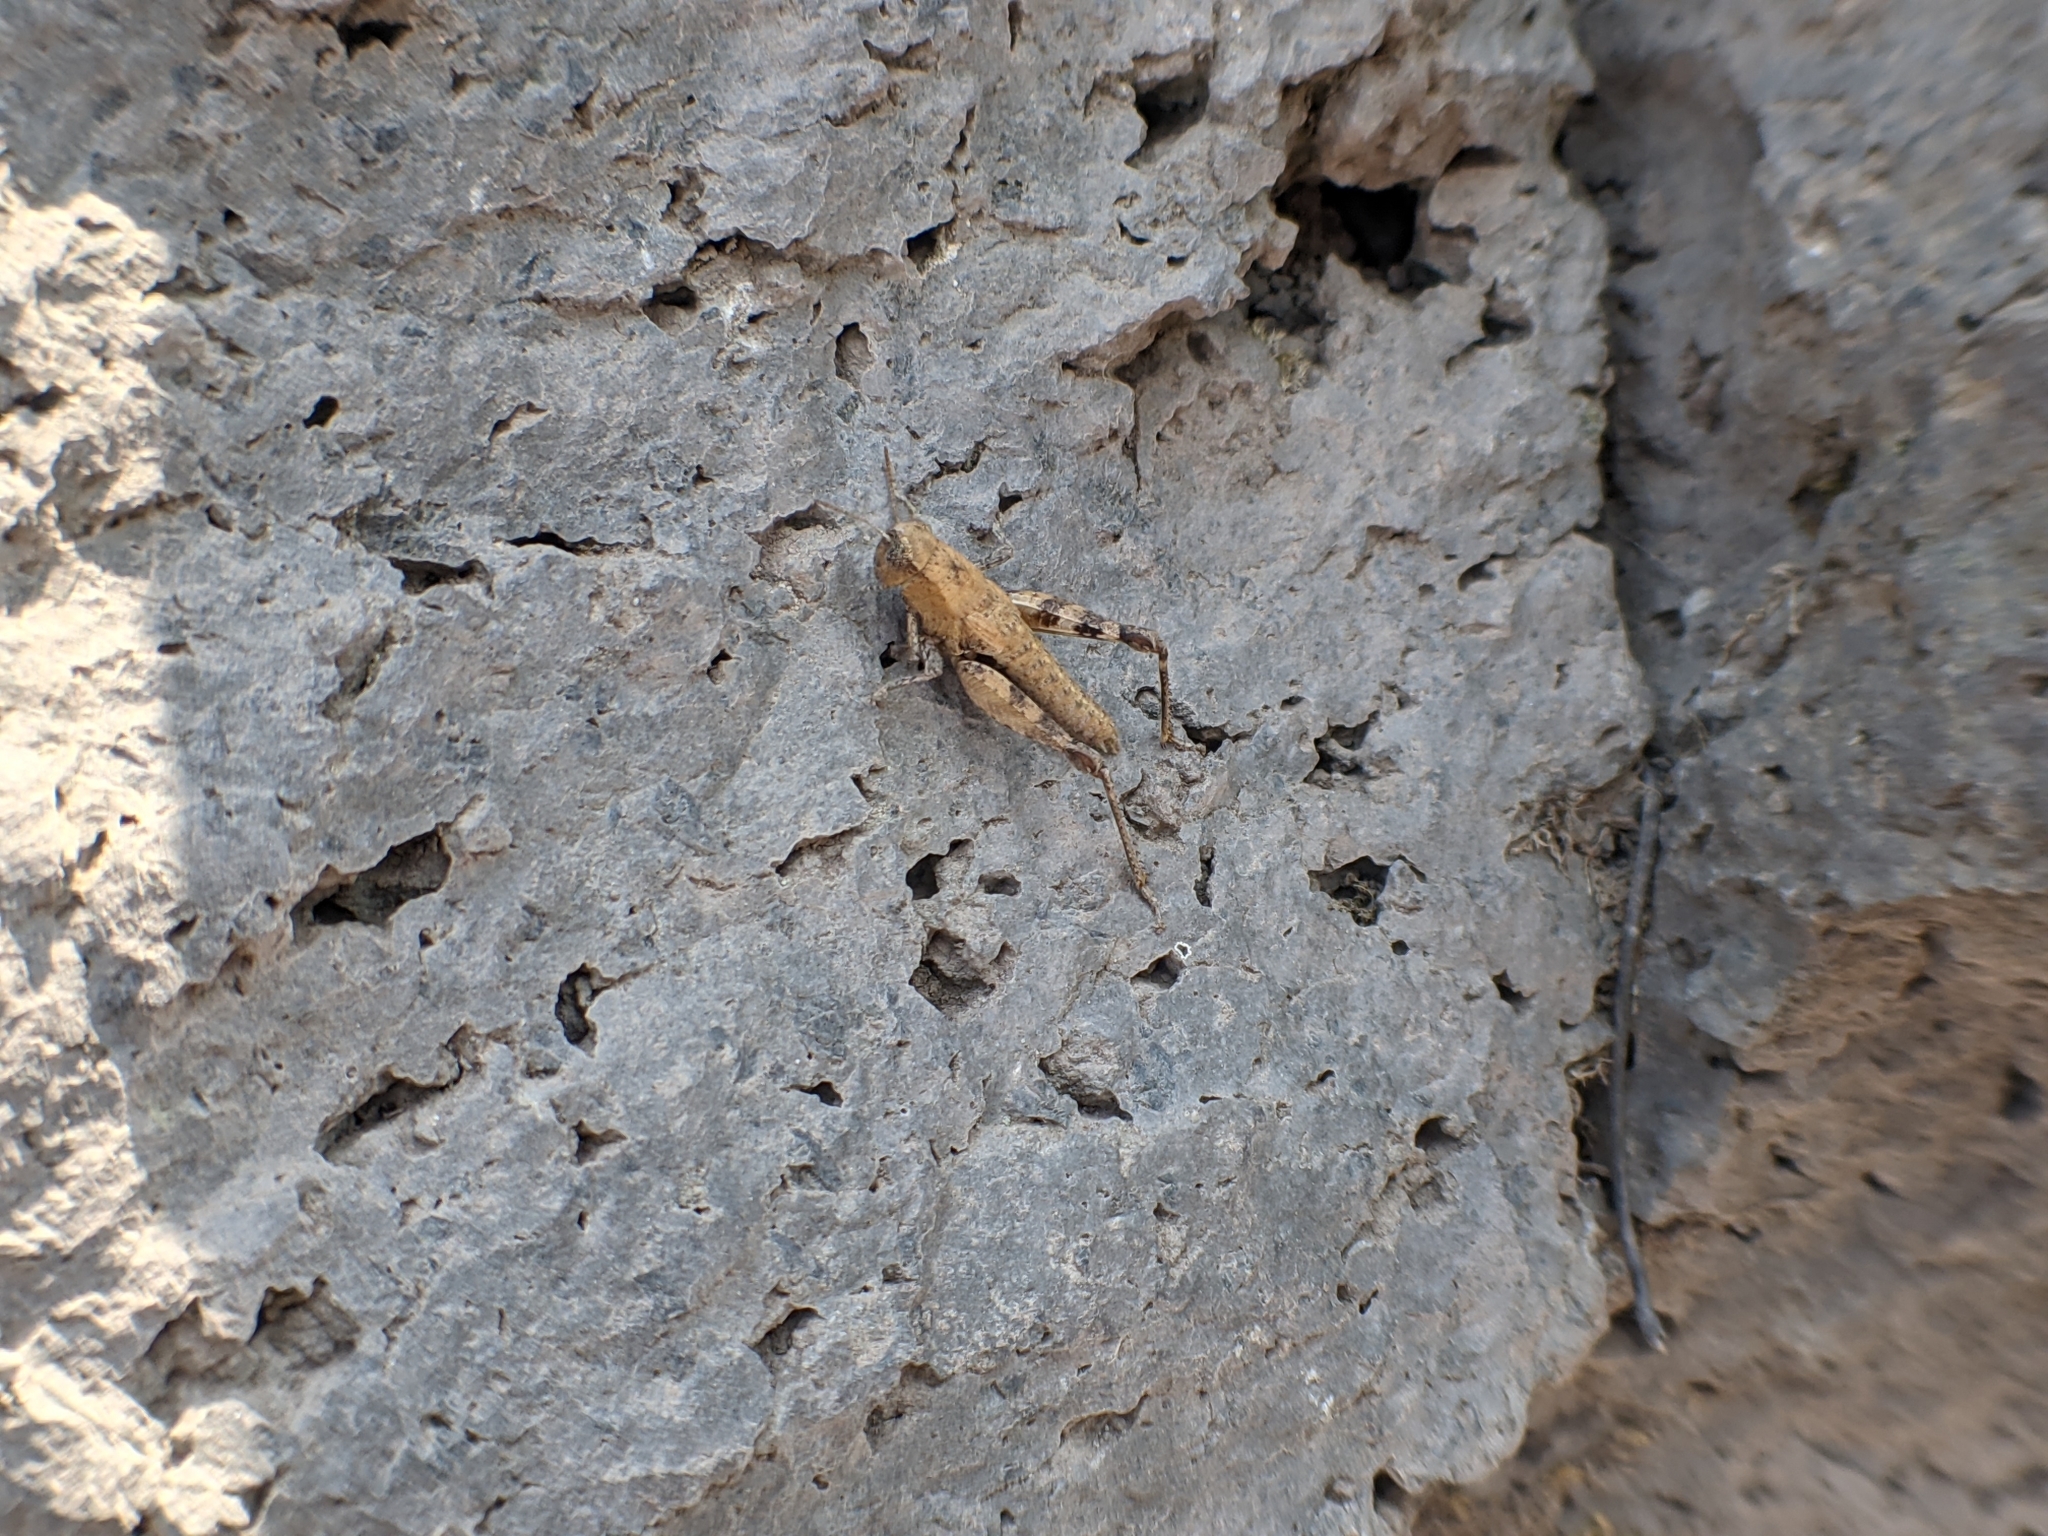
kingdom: Animalia
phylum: Arthropoda
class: Insecta
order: Orthoptera
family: Acrididae
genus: Pezotettix
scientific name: Pezotettix giornae
